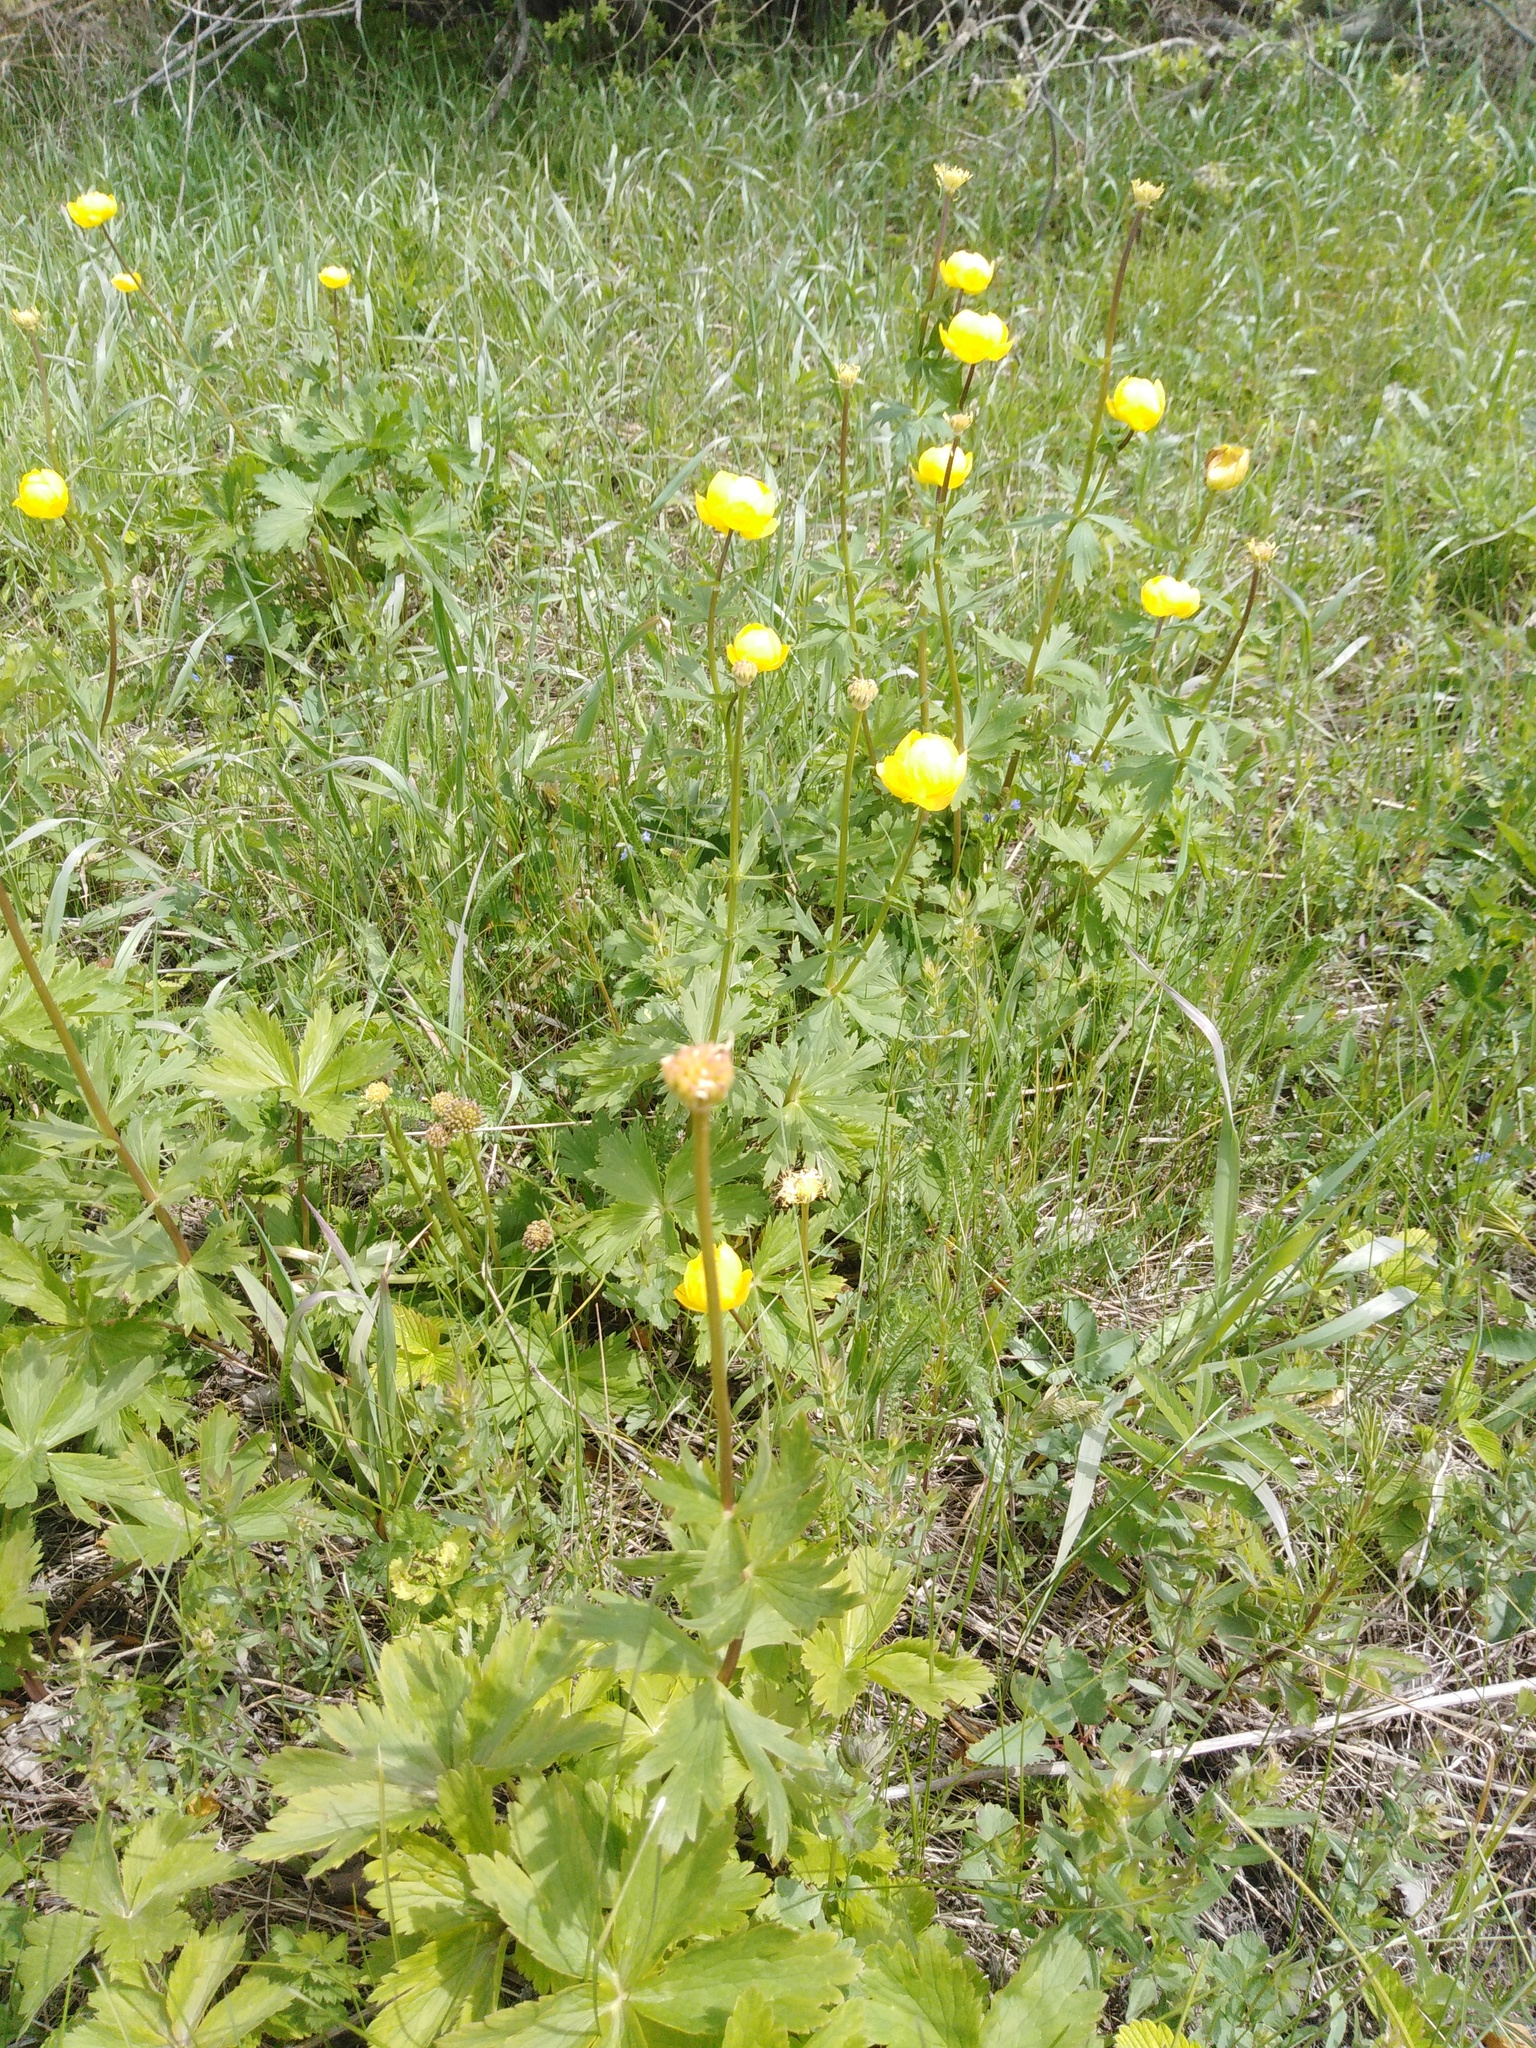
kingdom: Plantae
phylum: Tracheophyta
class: Magnoliopsida
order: Ranunculales
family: Ranunculaceae
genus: Trollius
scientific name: Trollius europaeus
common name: European globeflower
